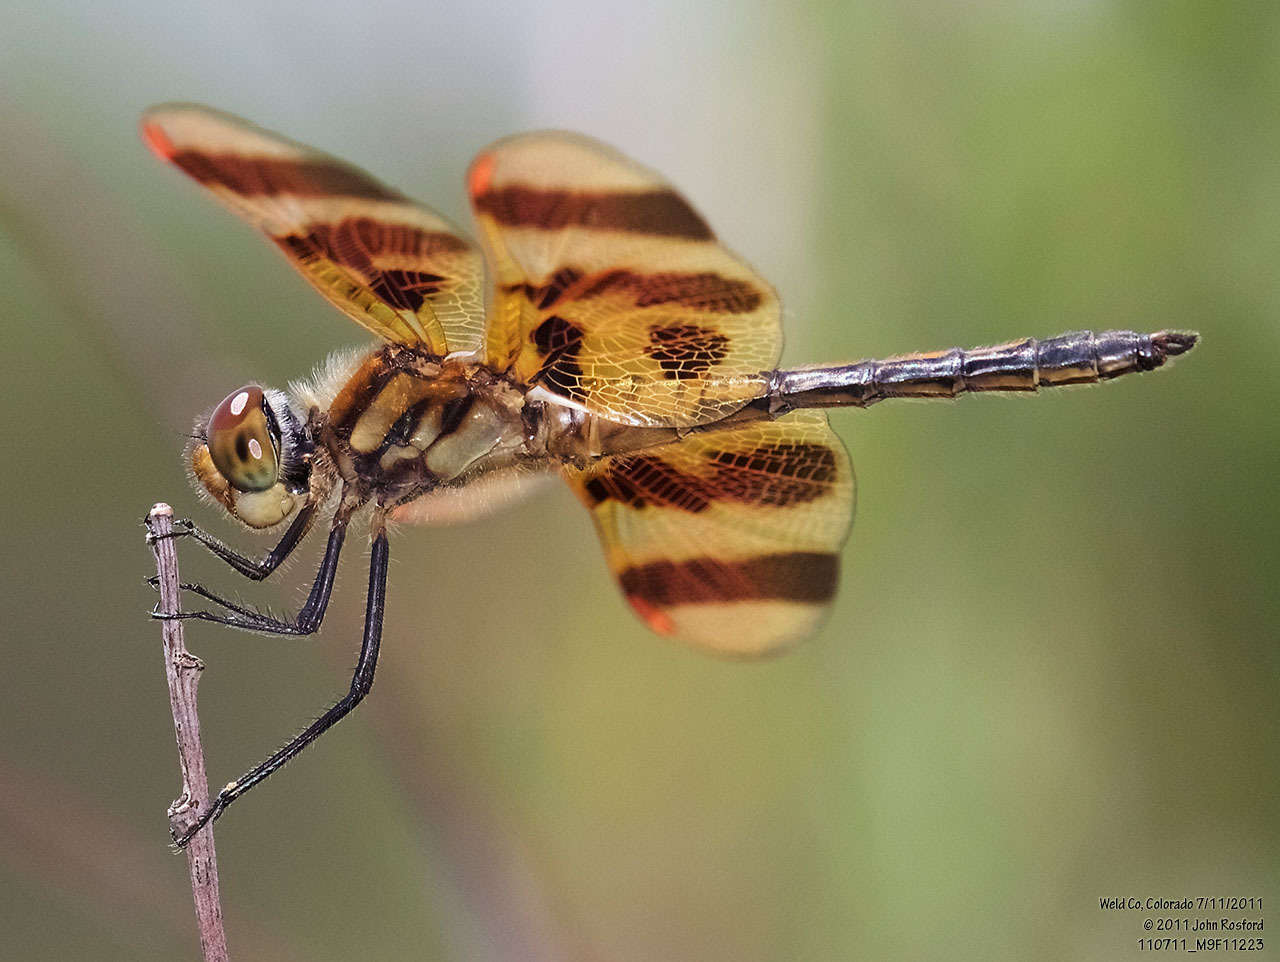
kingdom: Animalia
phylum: Arthropoda
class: Insecta
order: Odonata
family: Libellulidae
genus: Celithemis
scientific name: Celithemis eponina
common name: Halloween pennant
